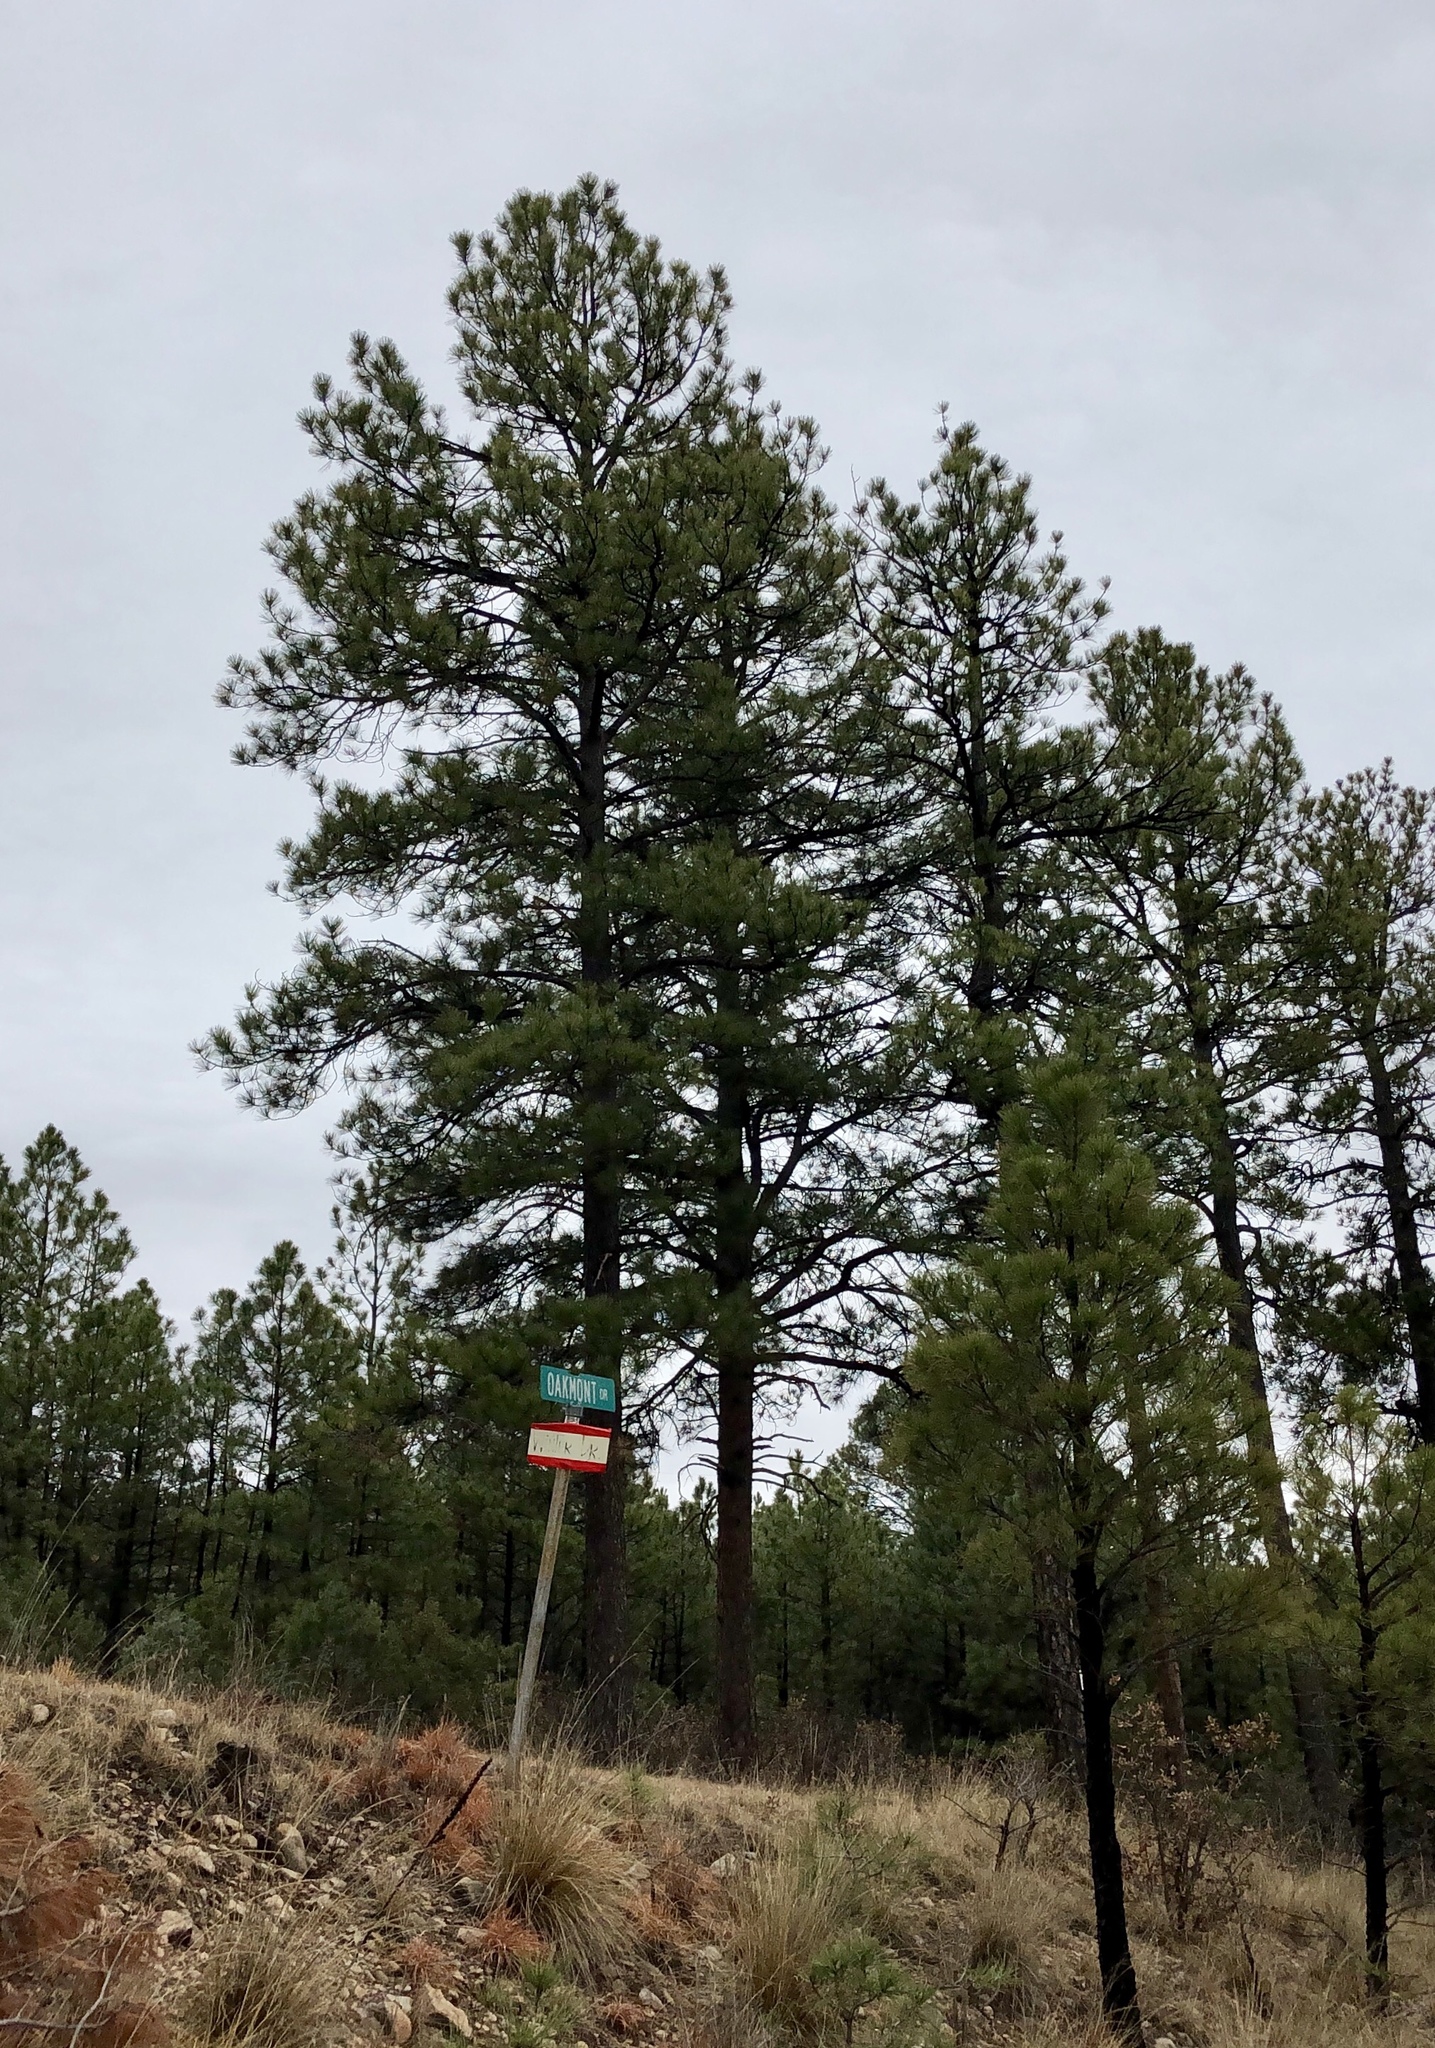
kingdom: Plantae
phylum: Tracheophyta
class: Pinopsida
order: Pinales
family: Pinaceae
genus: Pinus
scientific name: Pinus ponderosa
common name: Western yellow-pine
